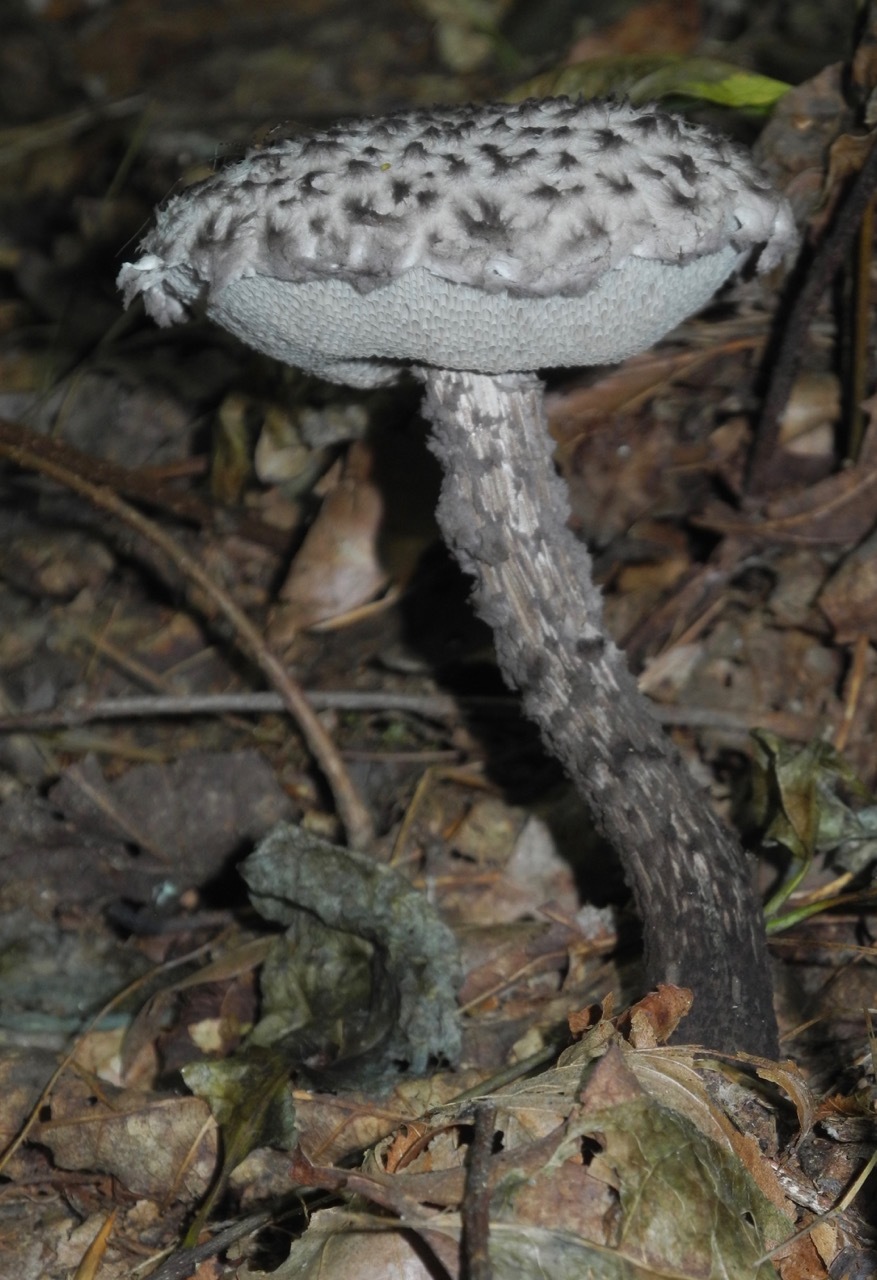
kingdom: Fungi
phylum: Basidiomycota
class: Agaricomycetes
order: Boletales
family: Boletaceae
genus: Strobilomyces
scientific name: Strobilomyces strobilaceus
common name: Old man of the woods
